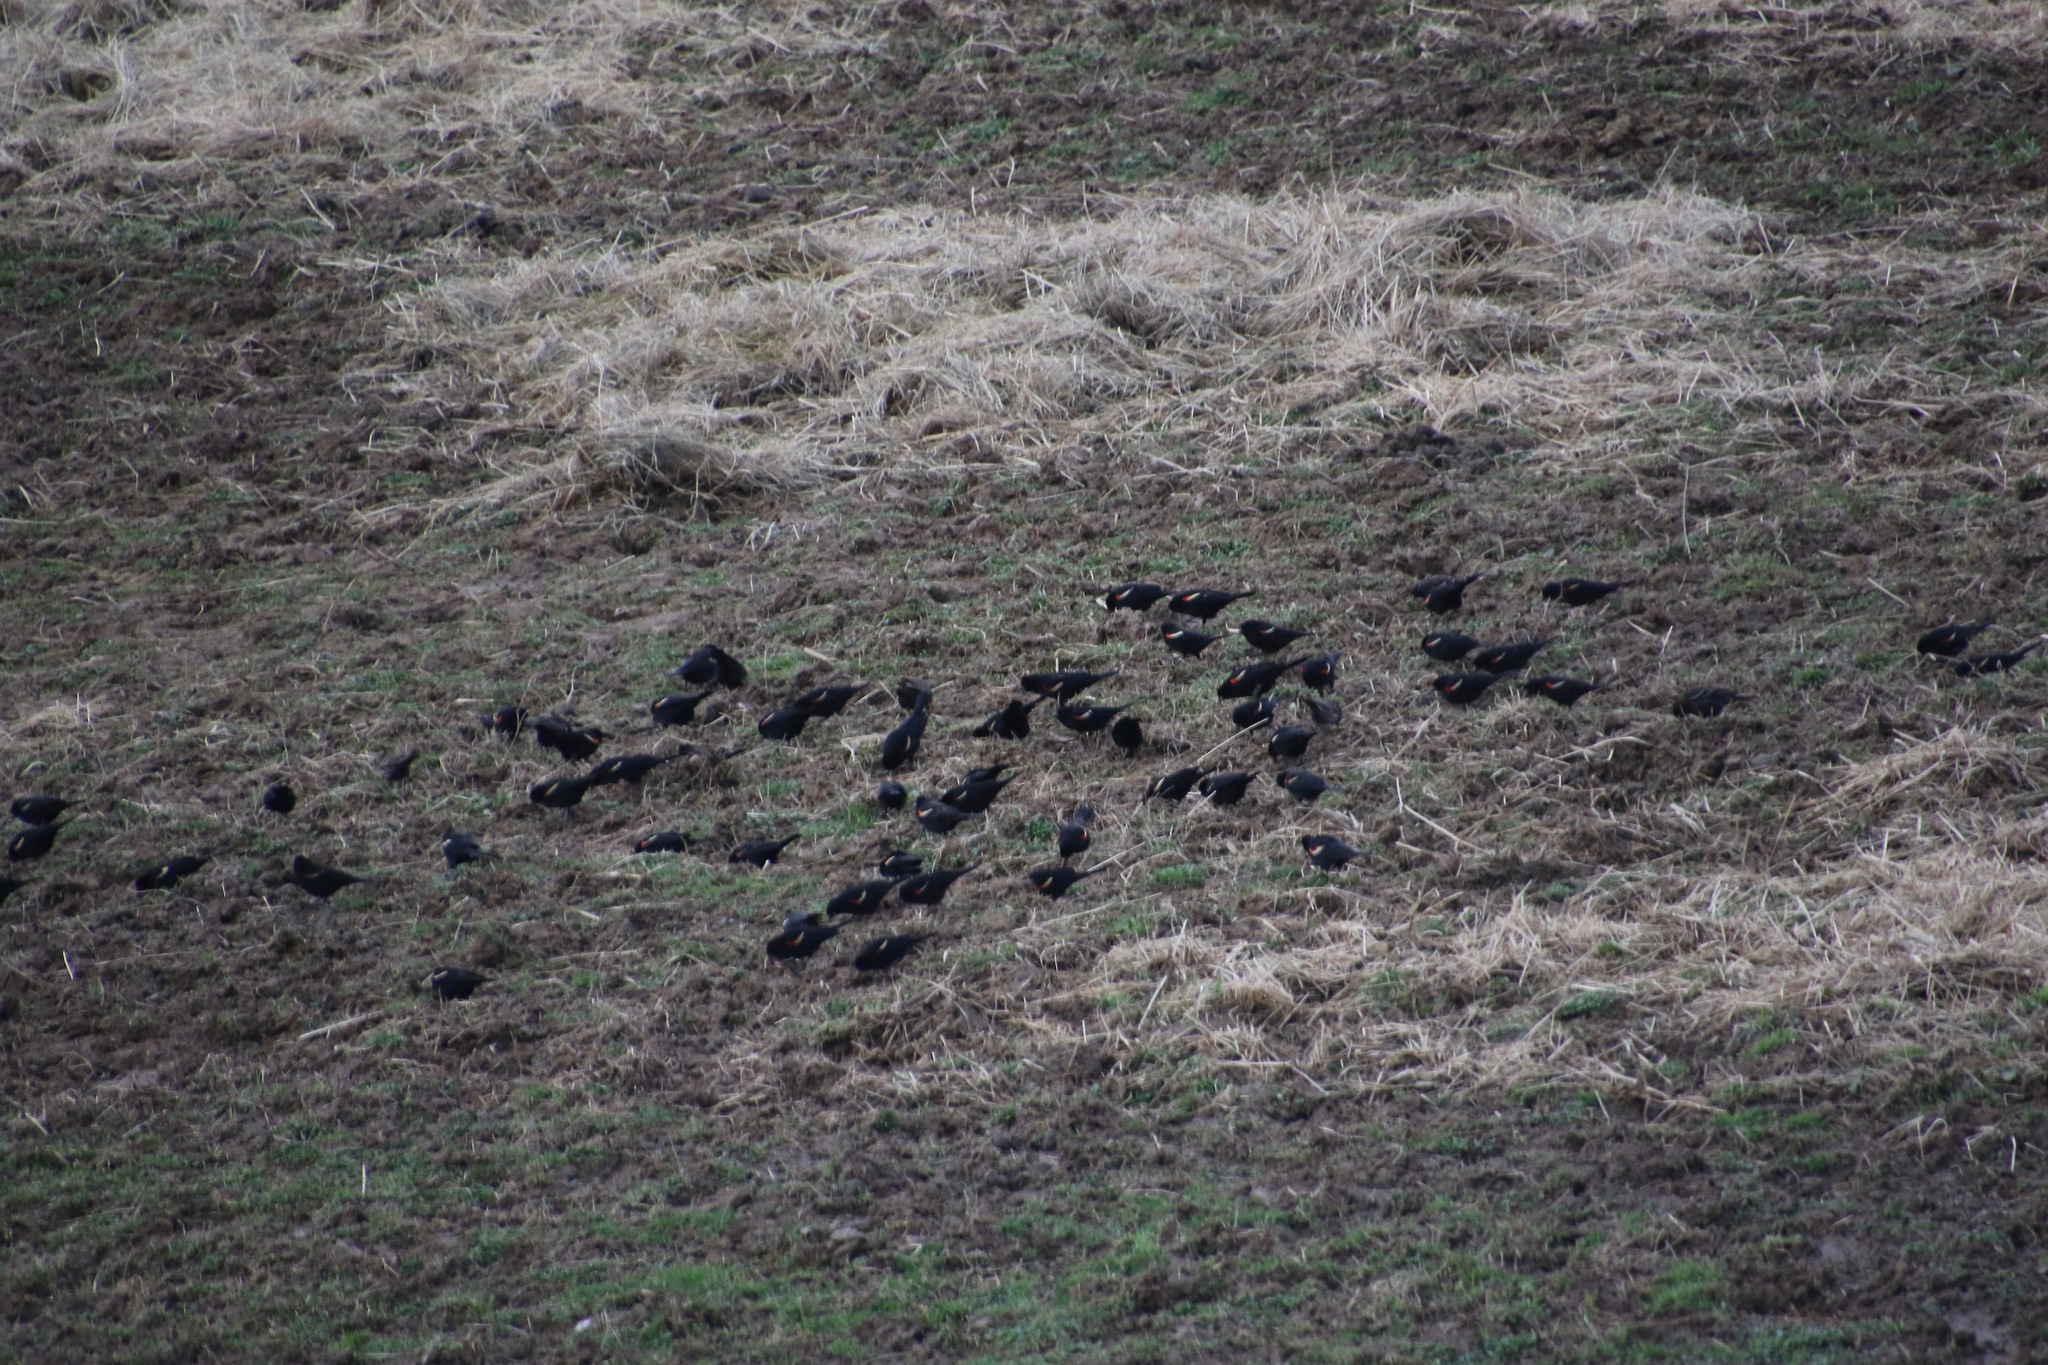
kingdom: Animalia
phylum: Chordata
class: Aves
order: Passeriformes
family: Icteridae
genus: Agelaius
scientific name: Agelaius phoeniceus
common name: Red-winged blackbird
